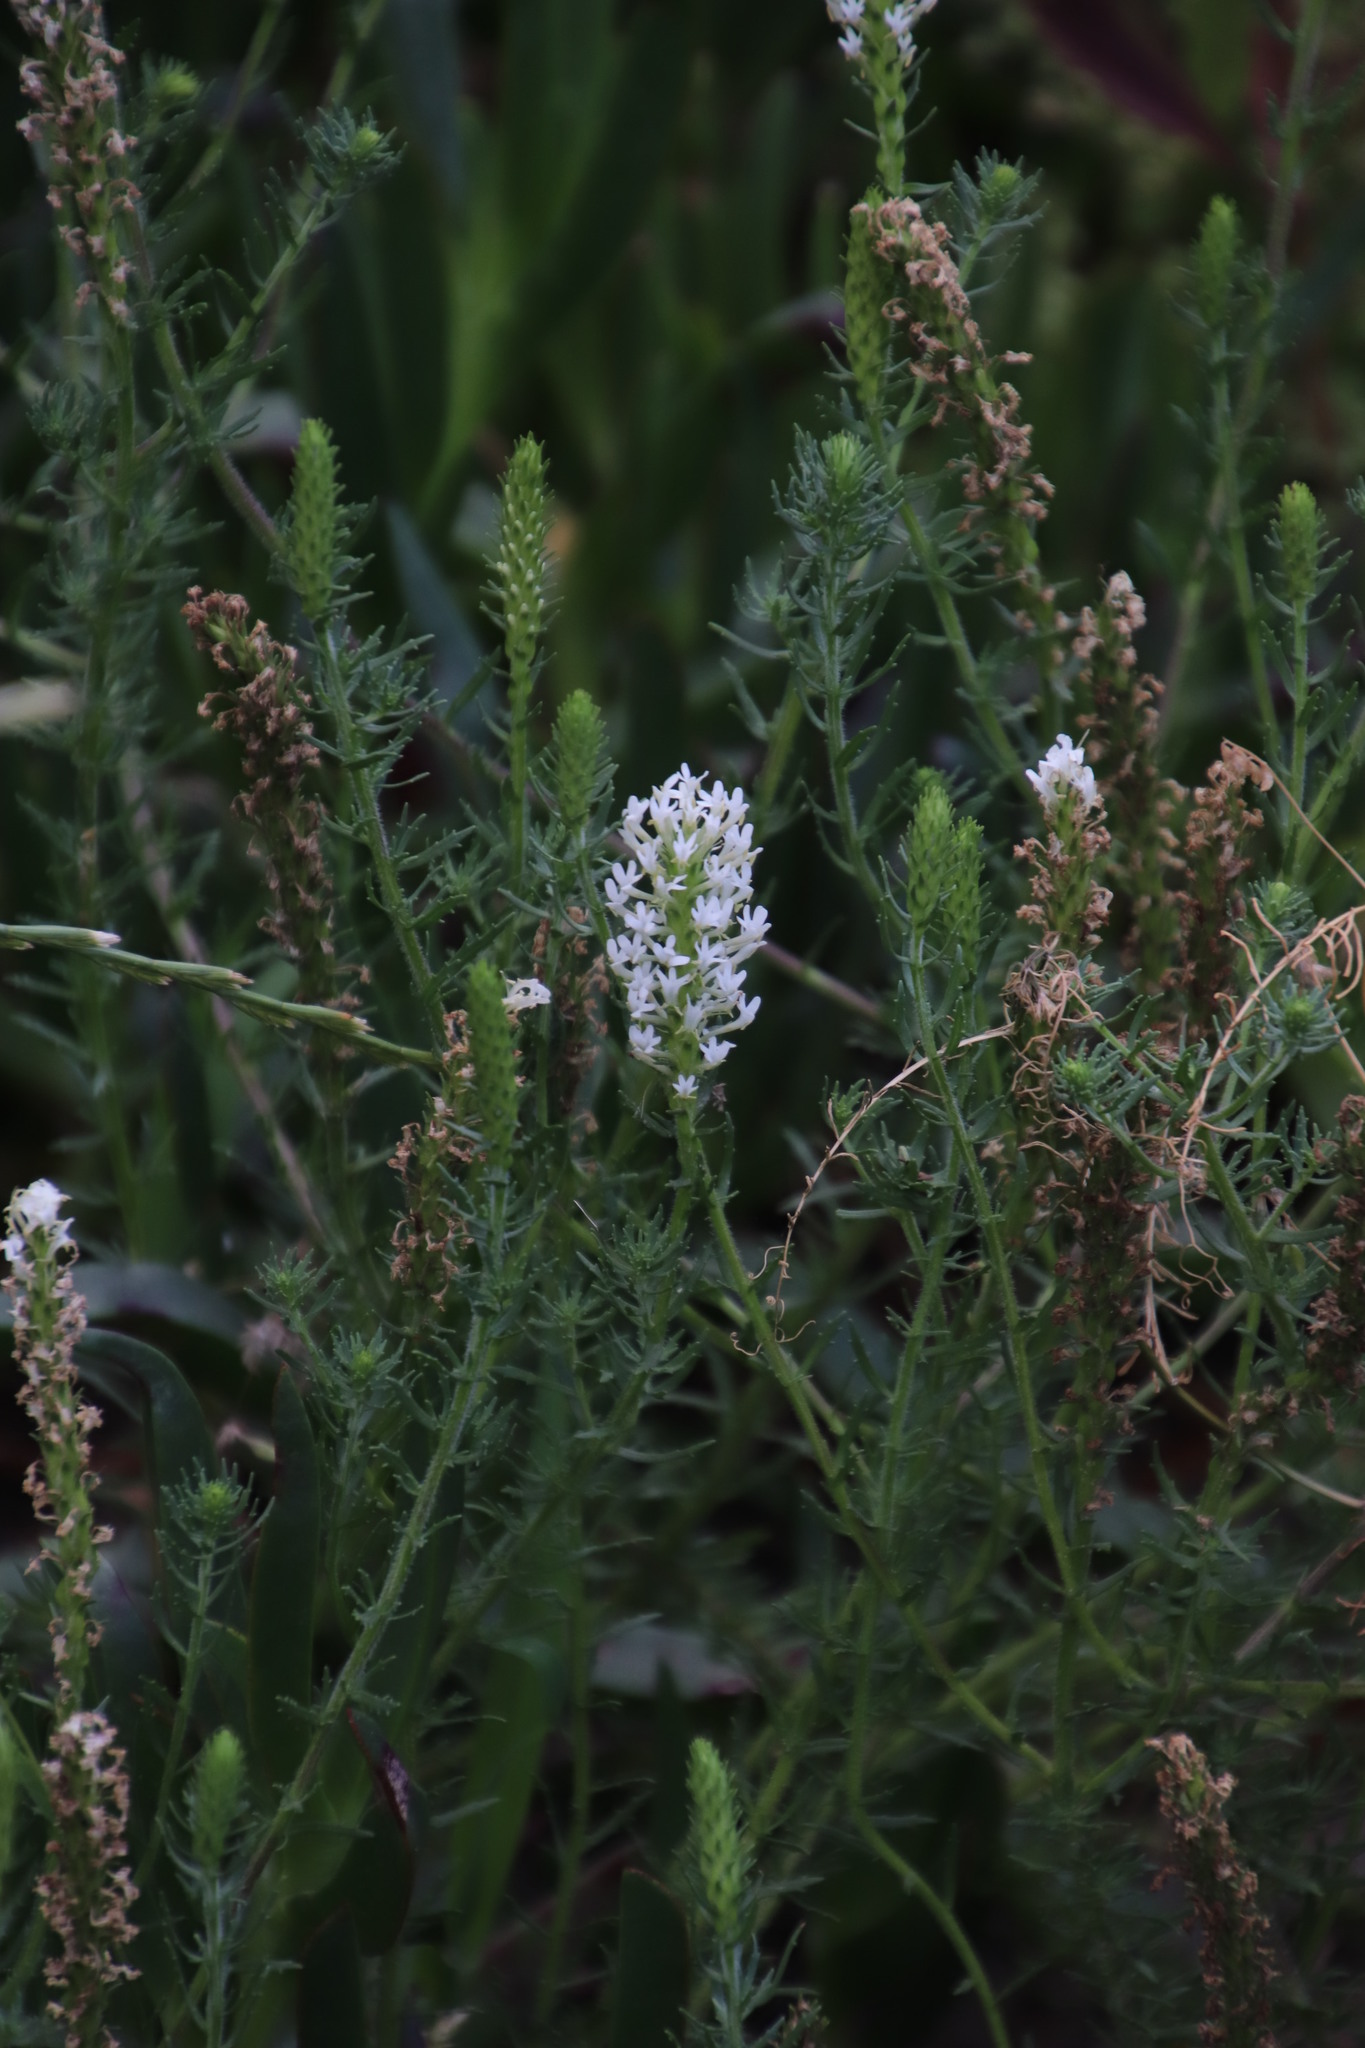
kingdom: Plantae
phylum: Tracheophyta
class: Magnoliopsida
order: Lamiales
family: Scrophulariaceae
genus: Dischisma
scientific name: Dischisma ciliatum
